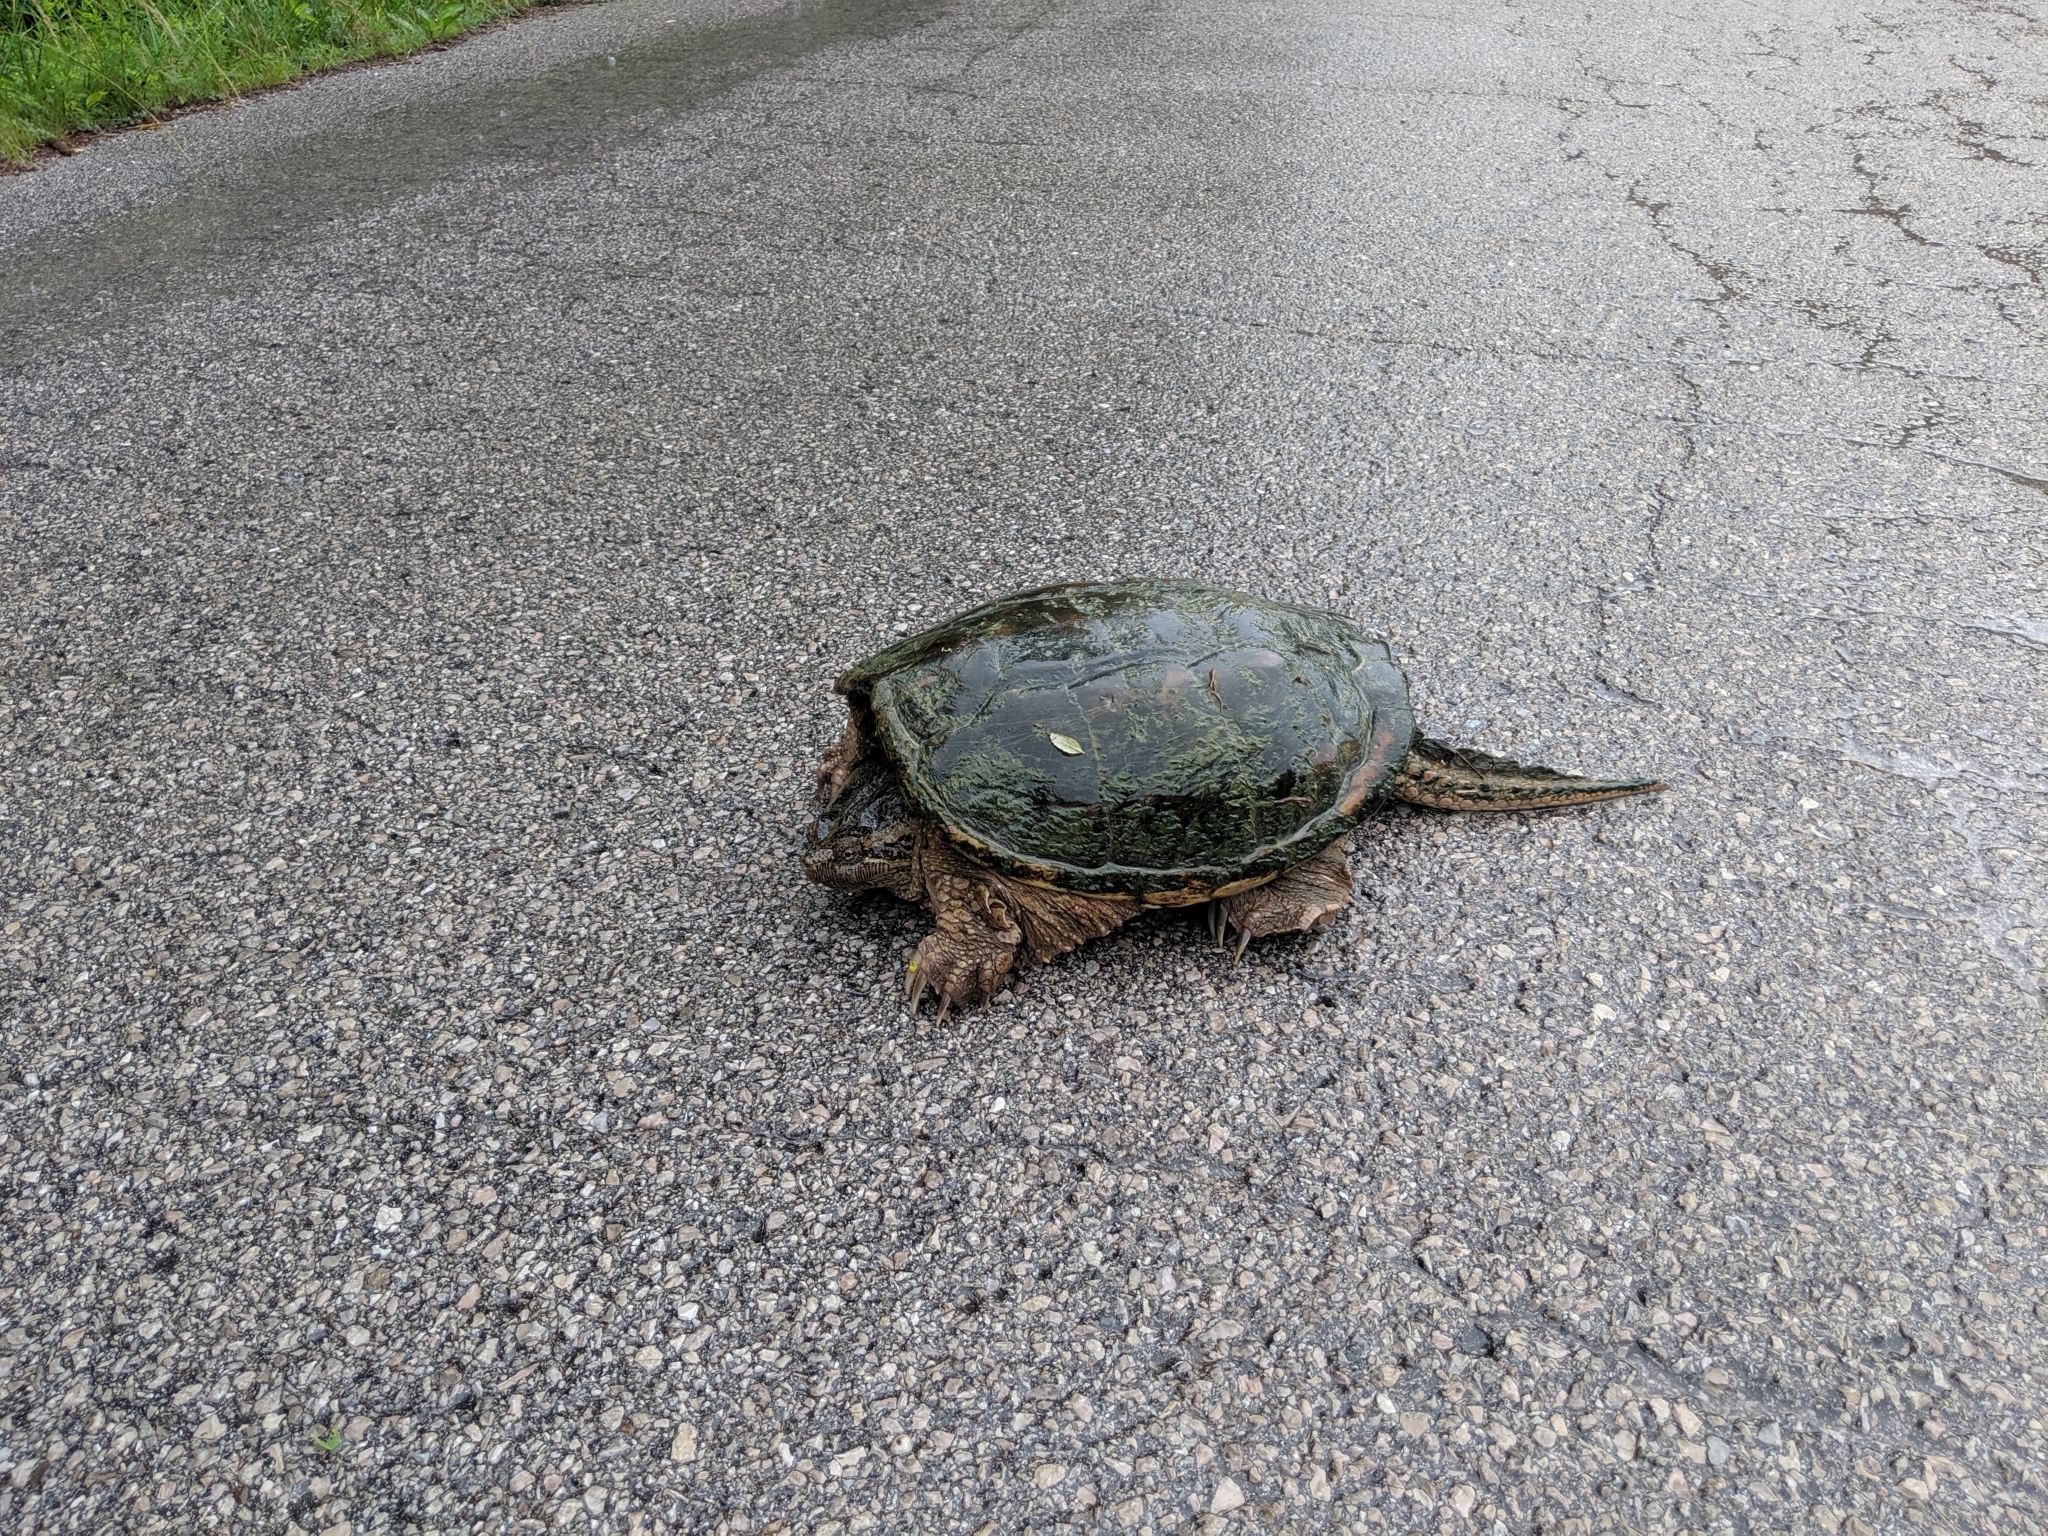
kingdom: Animalia
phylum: Chordata
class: Testudines
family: Chelydridae
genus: Chelydra
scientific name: Chelydra serpentina
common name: Common snapping turtle
